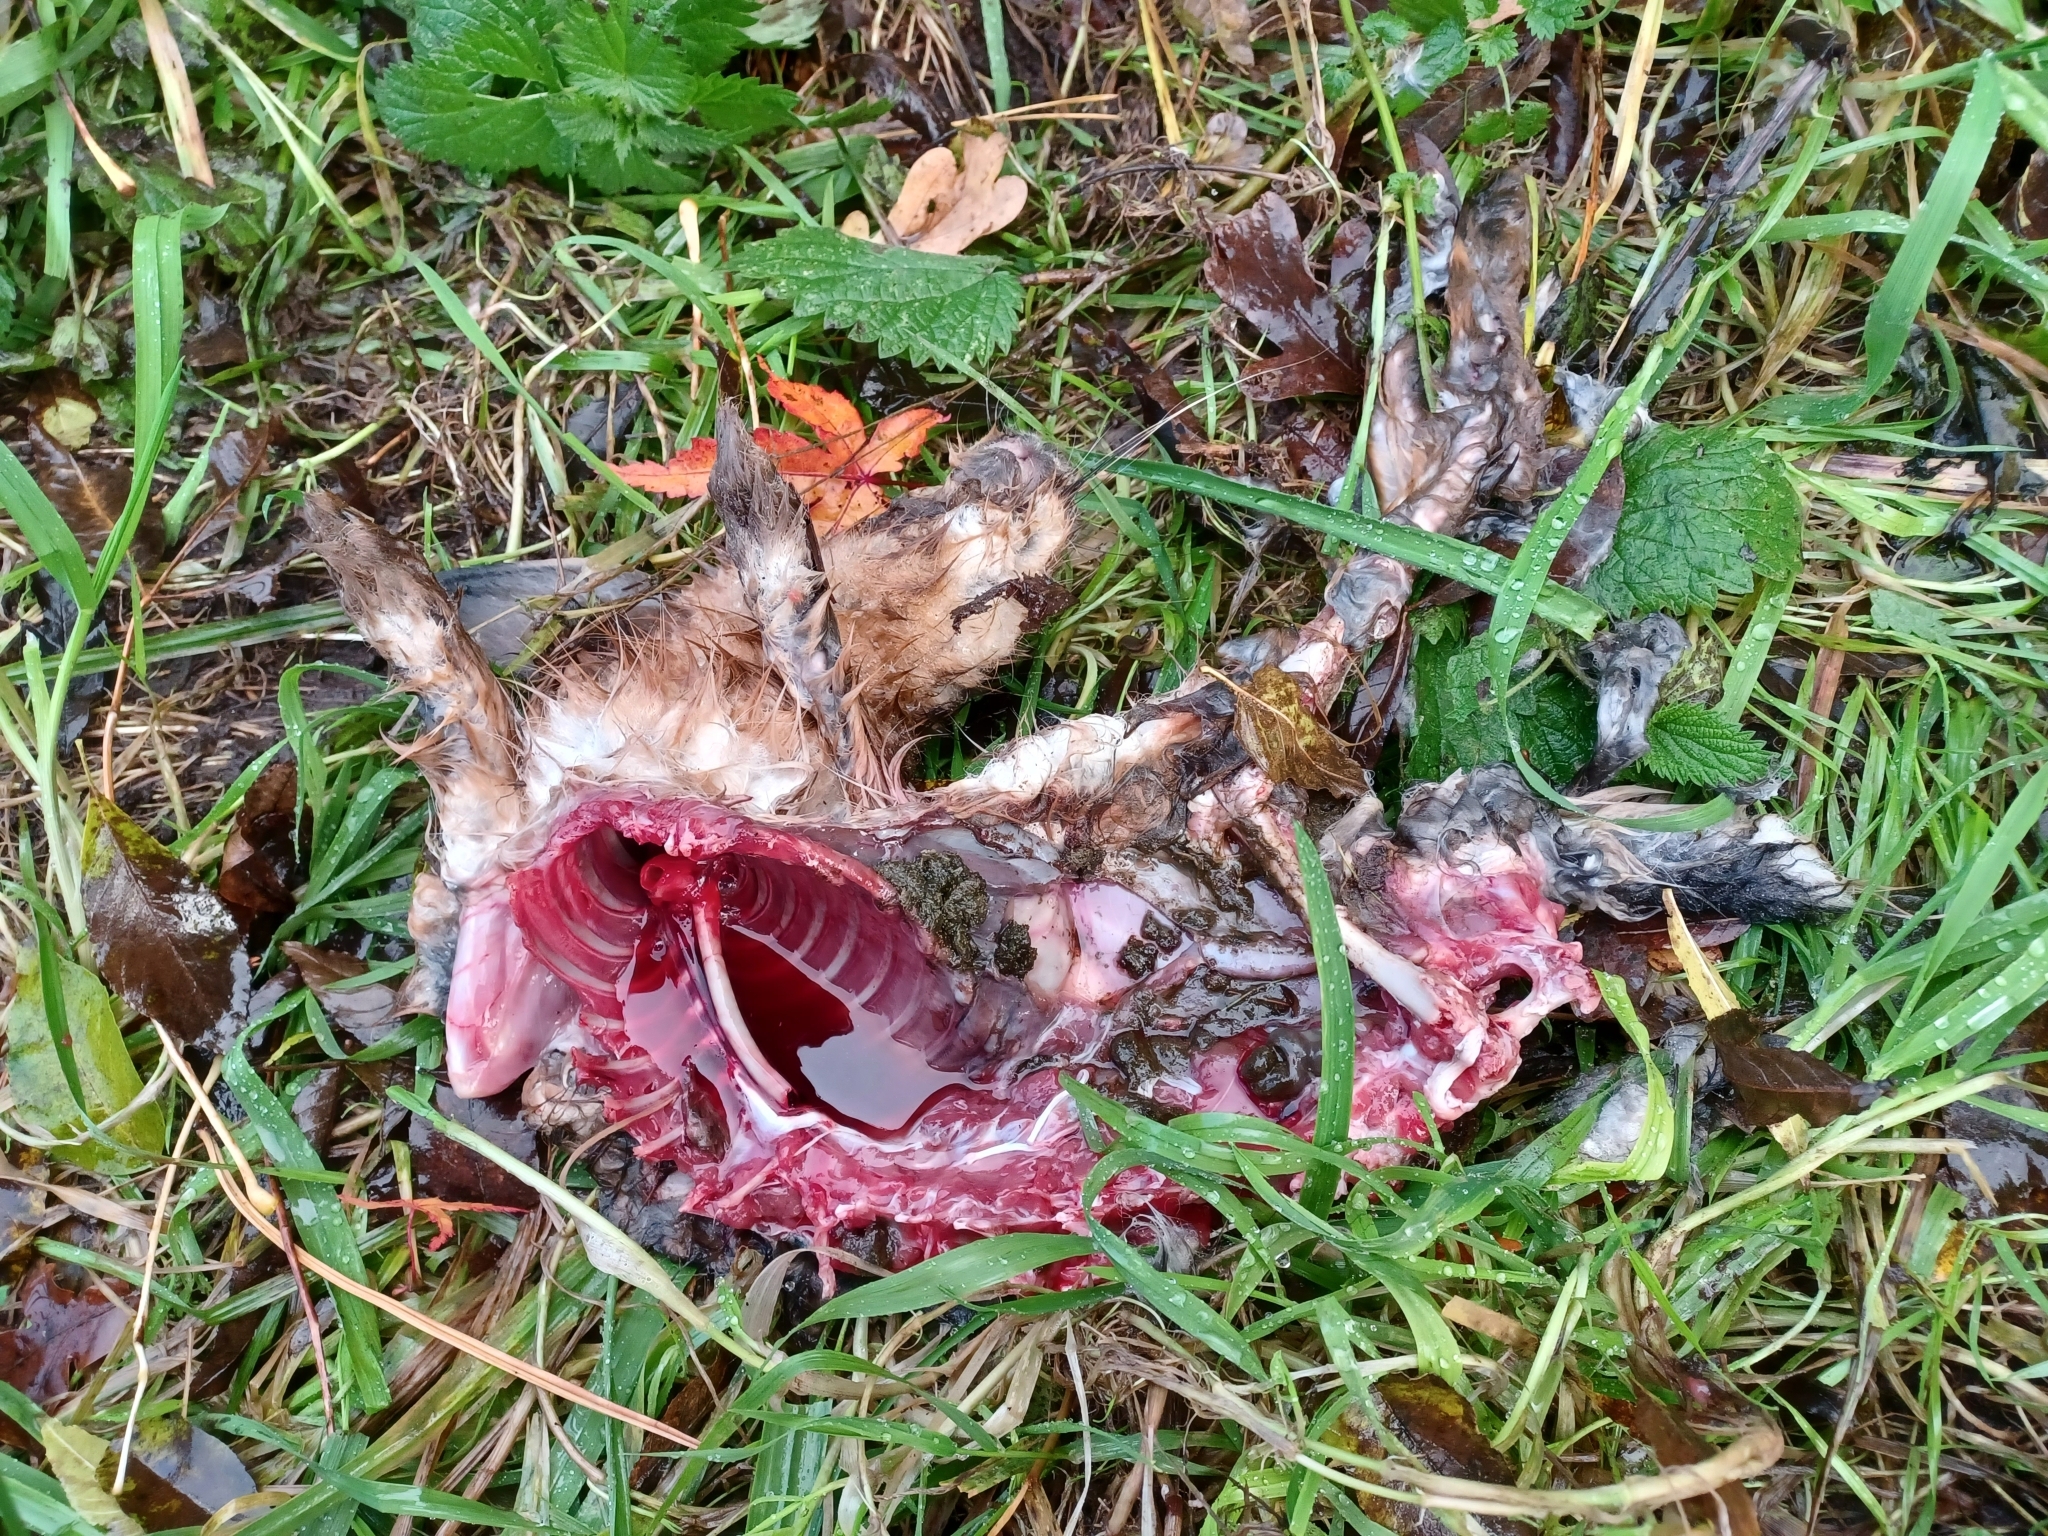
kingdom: Animalia
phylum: Chordata
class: Mammalia
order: Lagomorpha
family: Leporidae
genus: Lepus
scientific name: Lepus europaeus
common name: European hare
